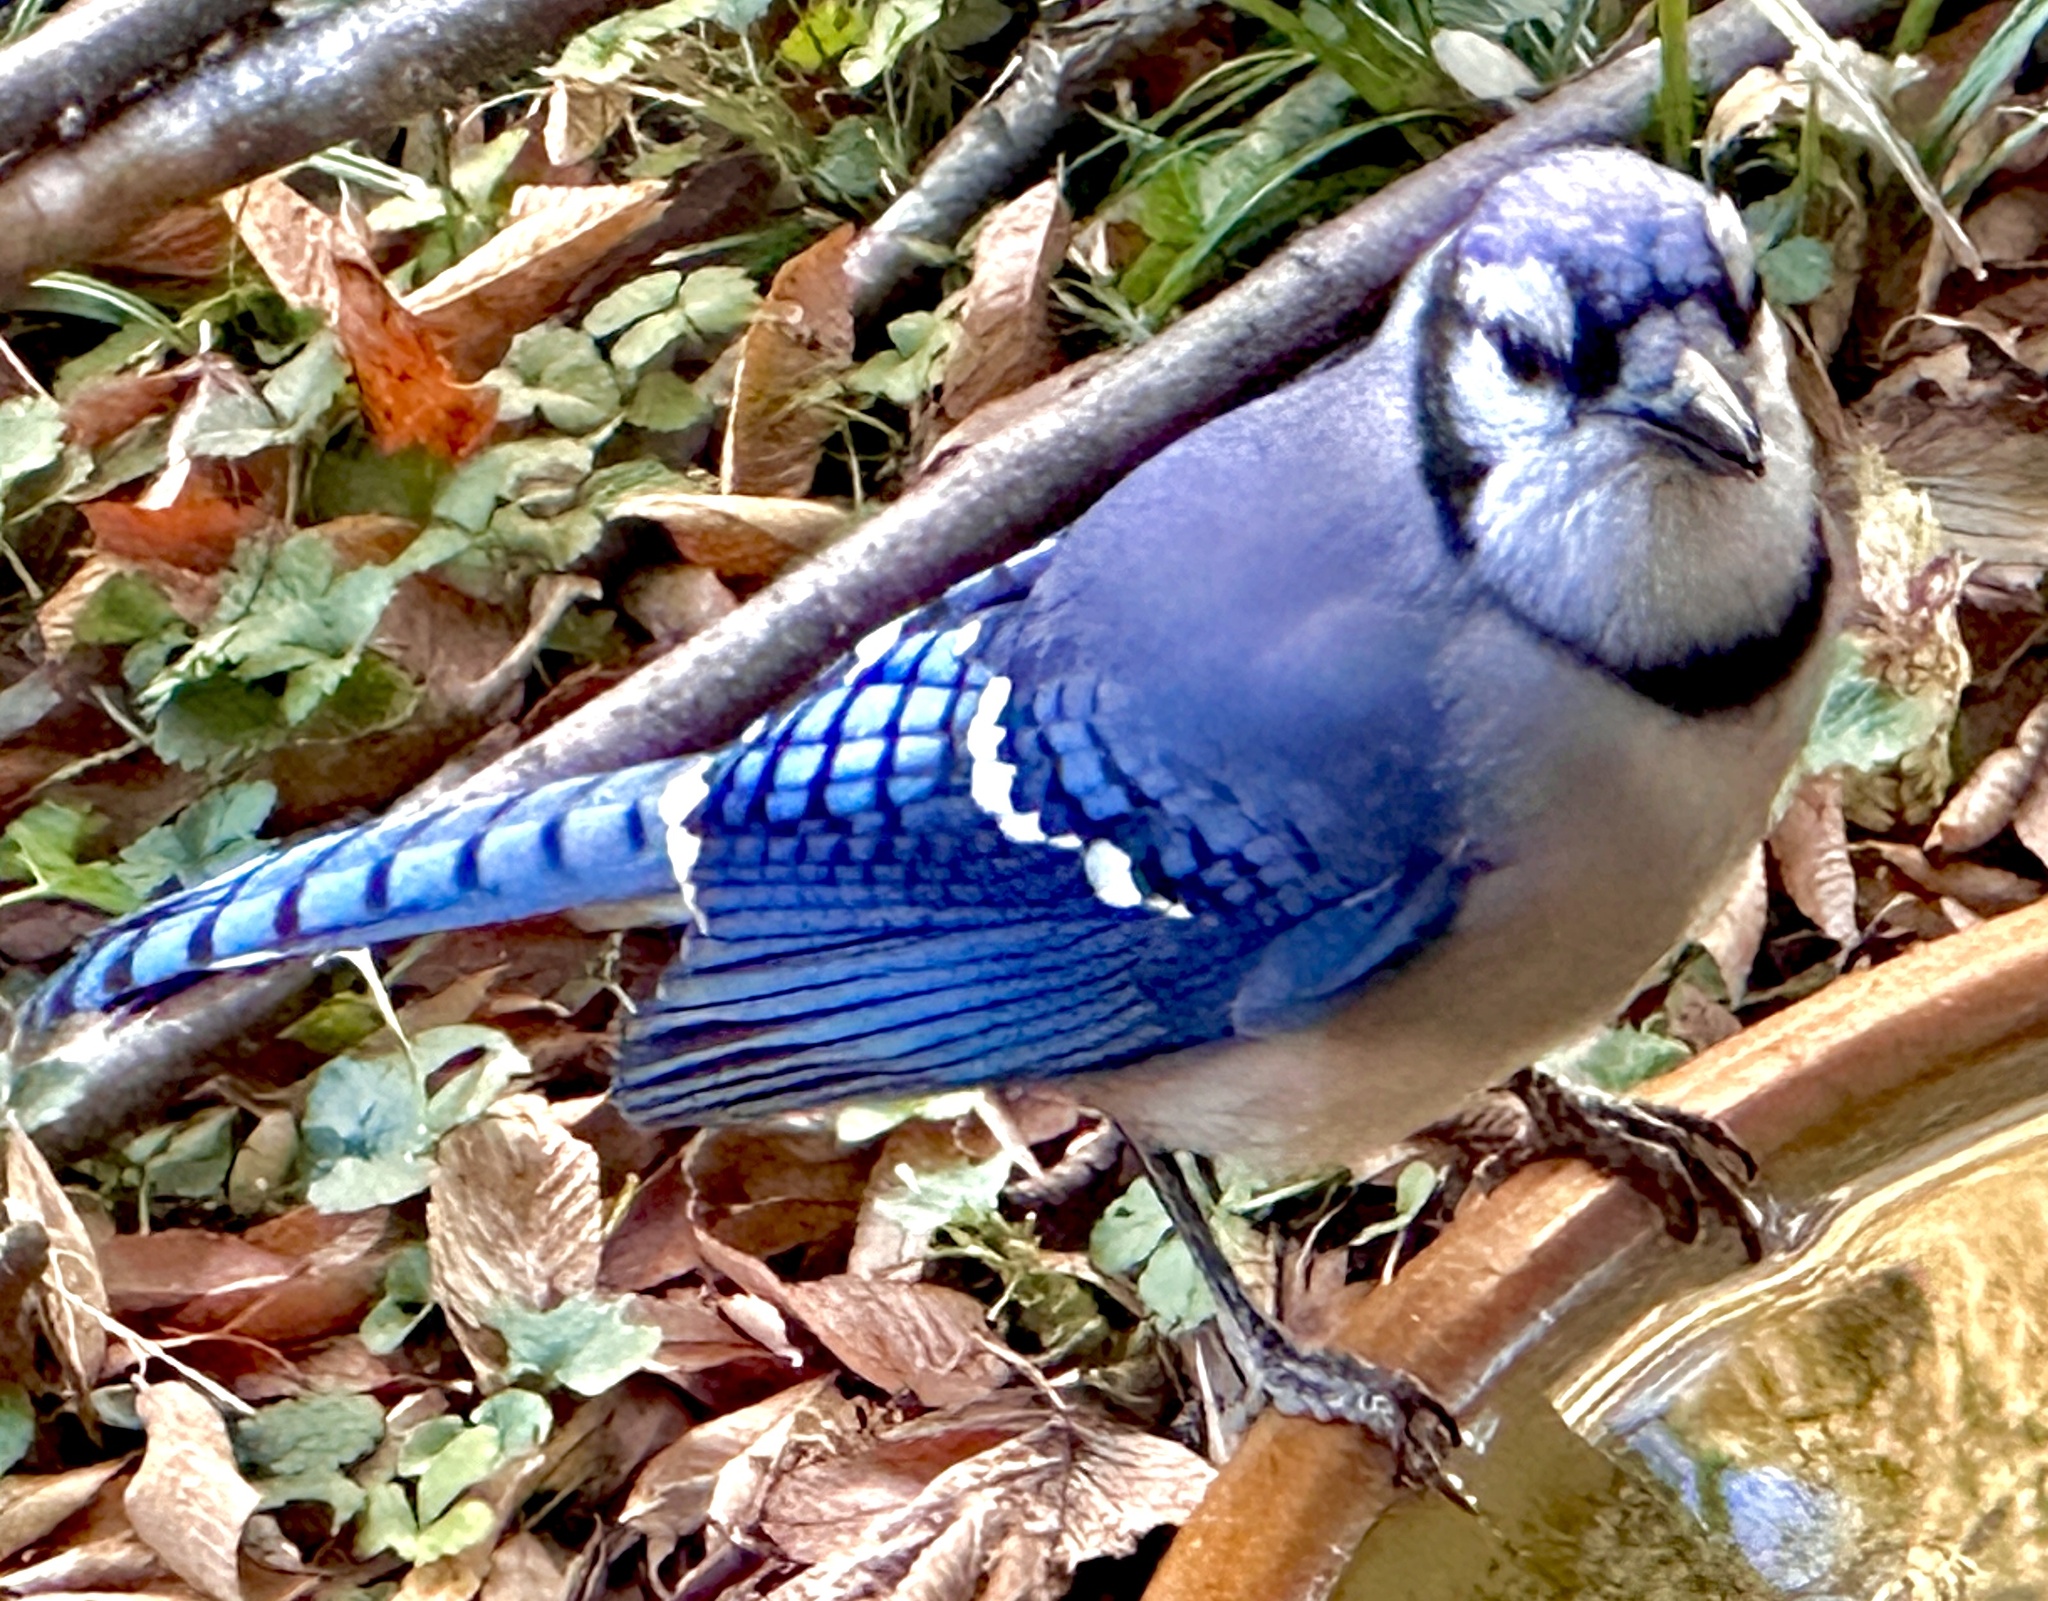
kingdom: Animalia
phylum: Chordata
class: Aves
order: Passeriformes
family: Corvidae
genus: Cyanocitta
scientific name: Cyanocitta cristata
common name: Blue jay
